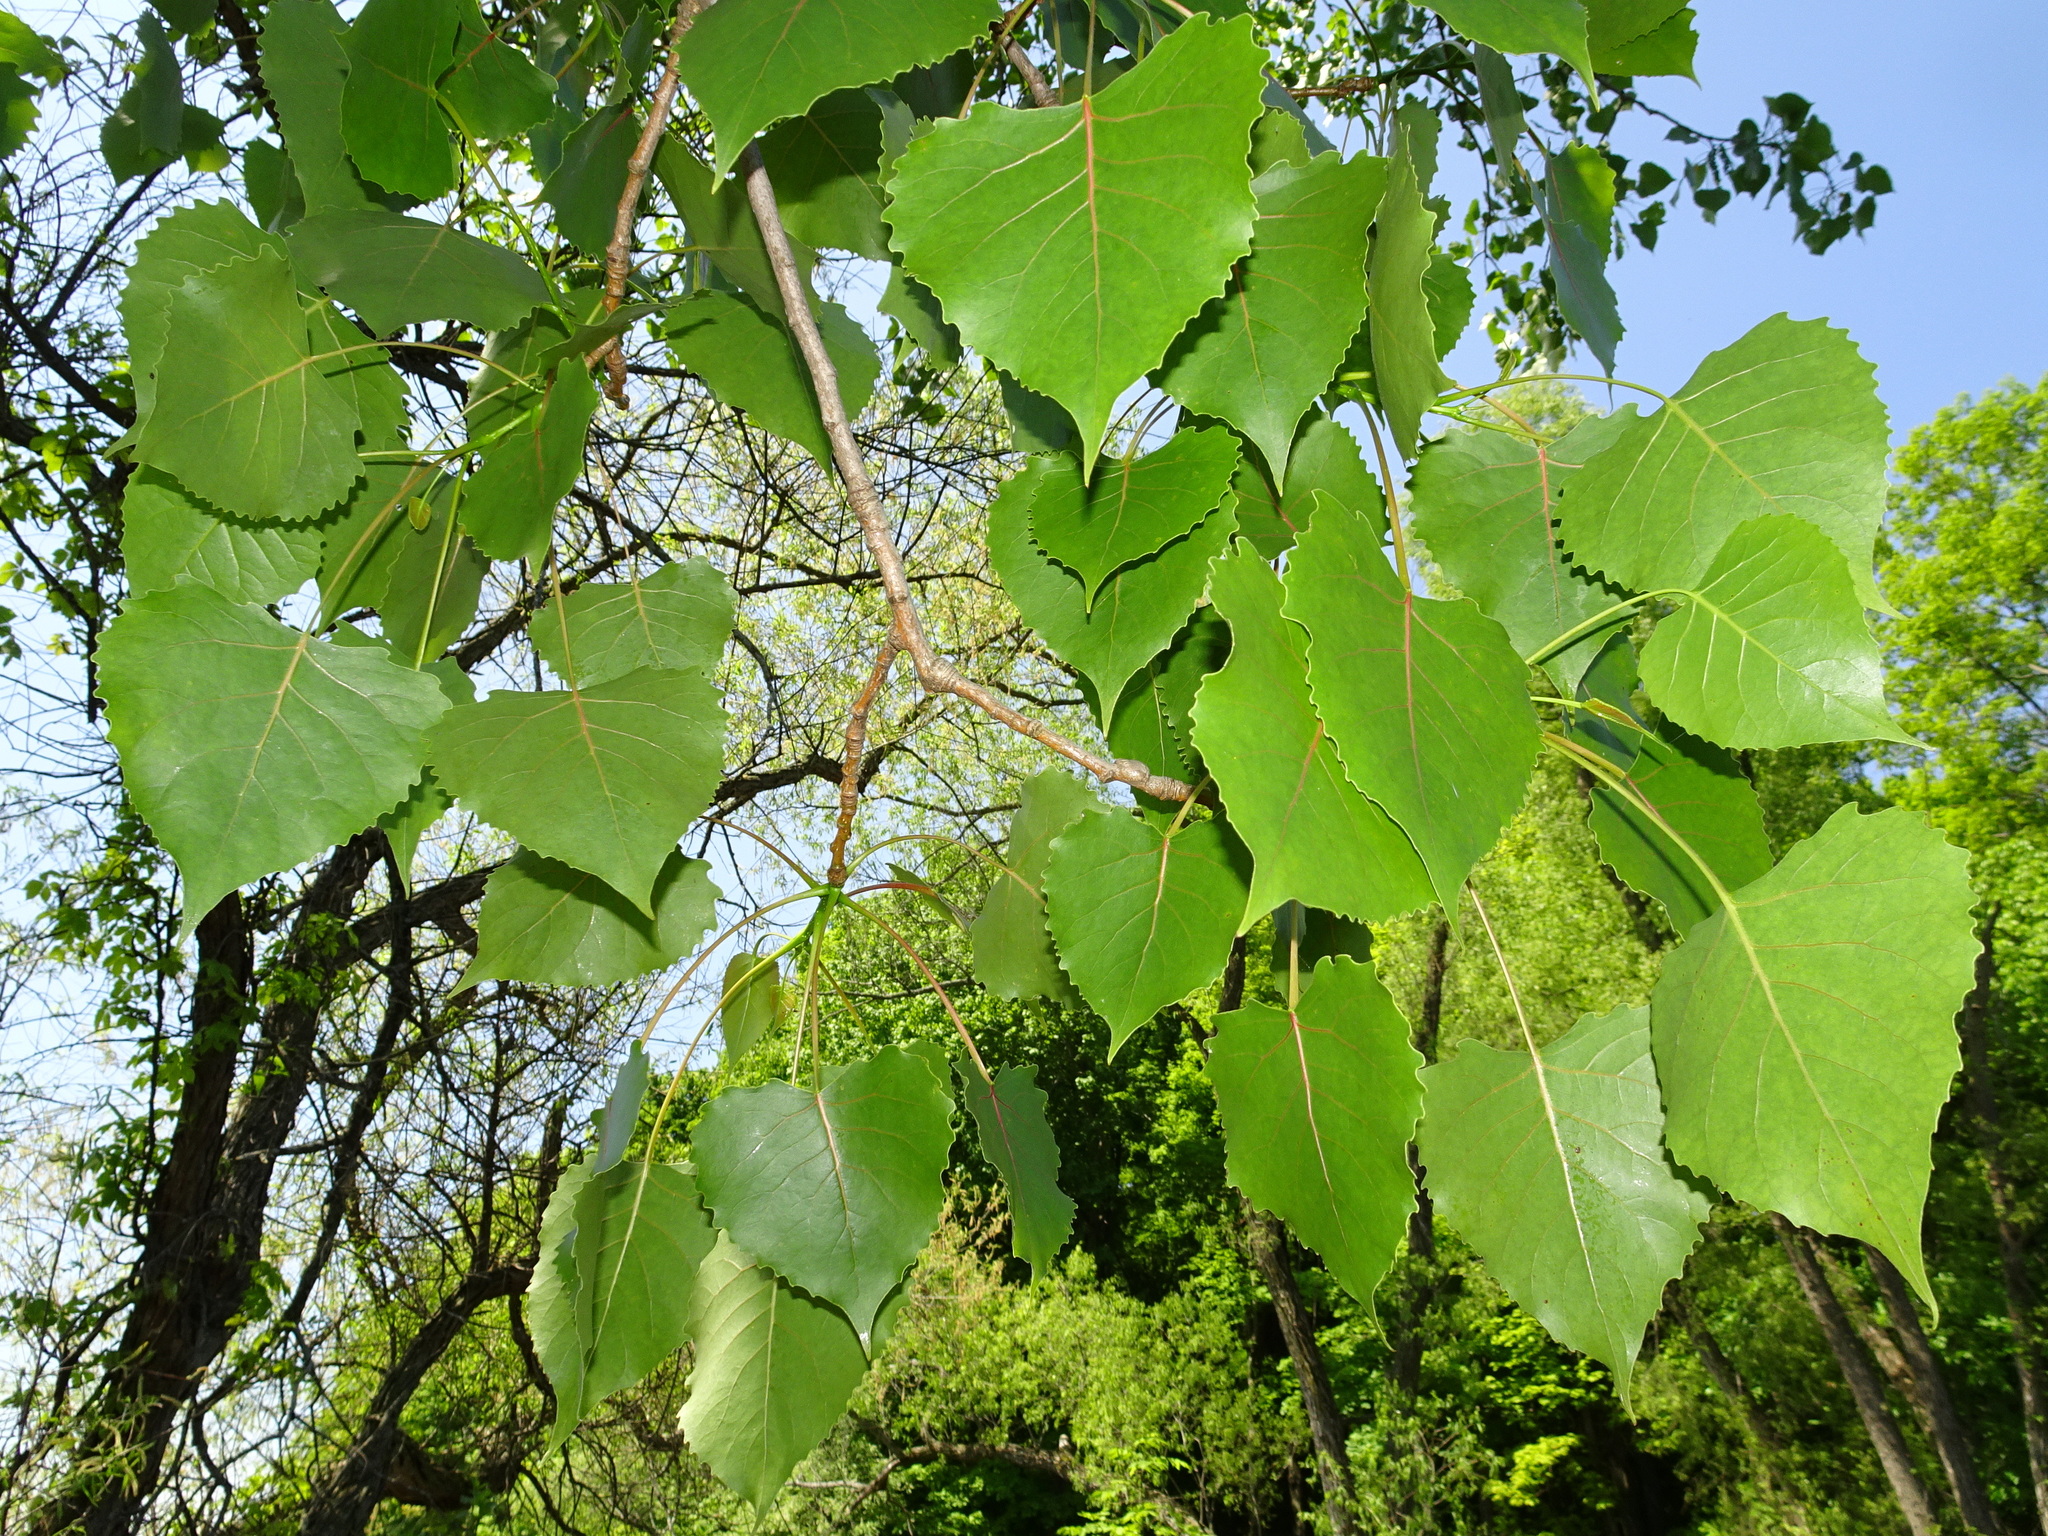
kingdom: Plantae
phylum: Tracheophyta
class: Magnoliopsida
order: Malpighiales
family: Salicaceae
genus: Populus
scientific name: Populus deltoides
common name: Eastern cottonwood
